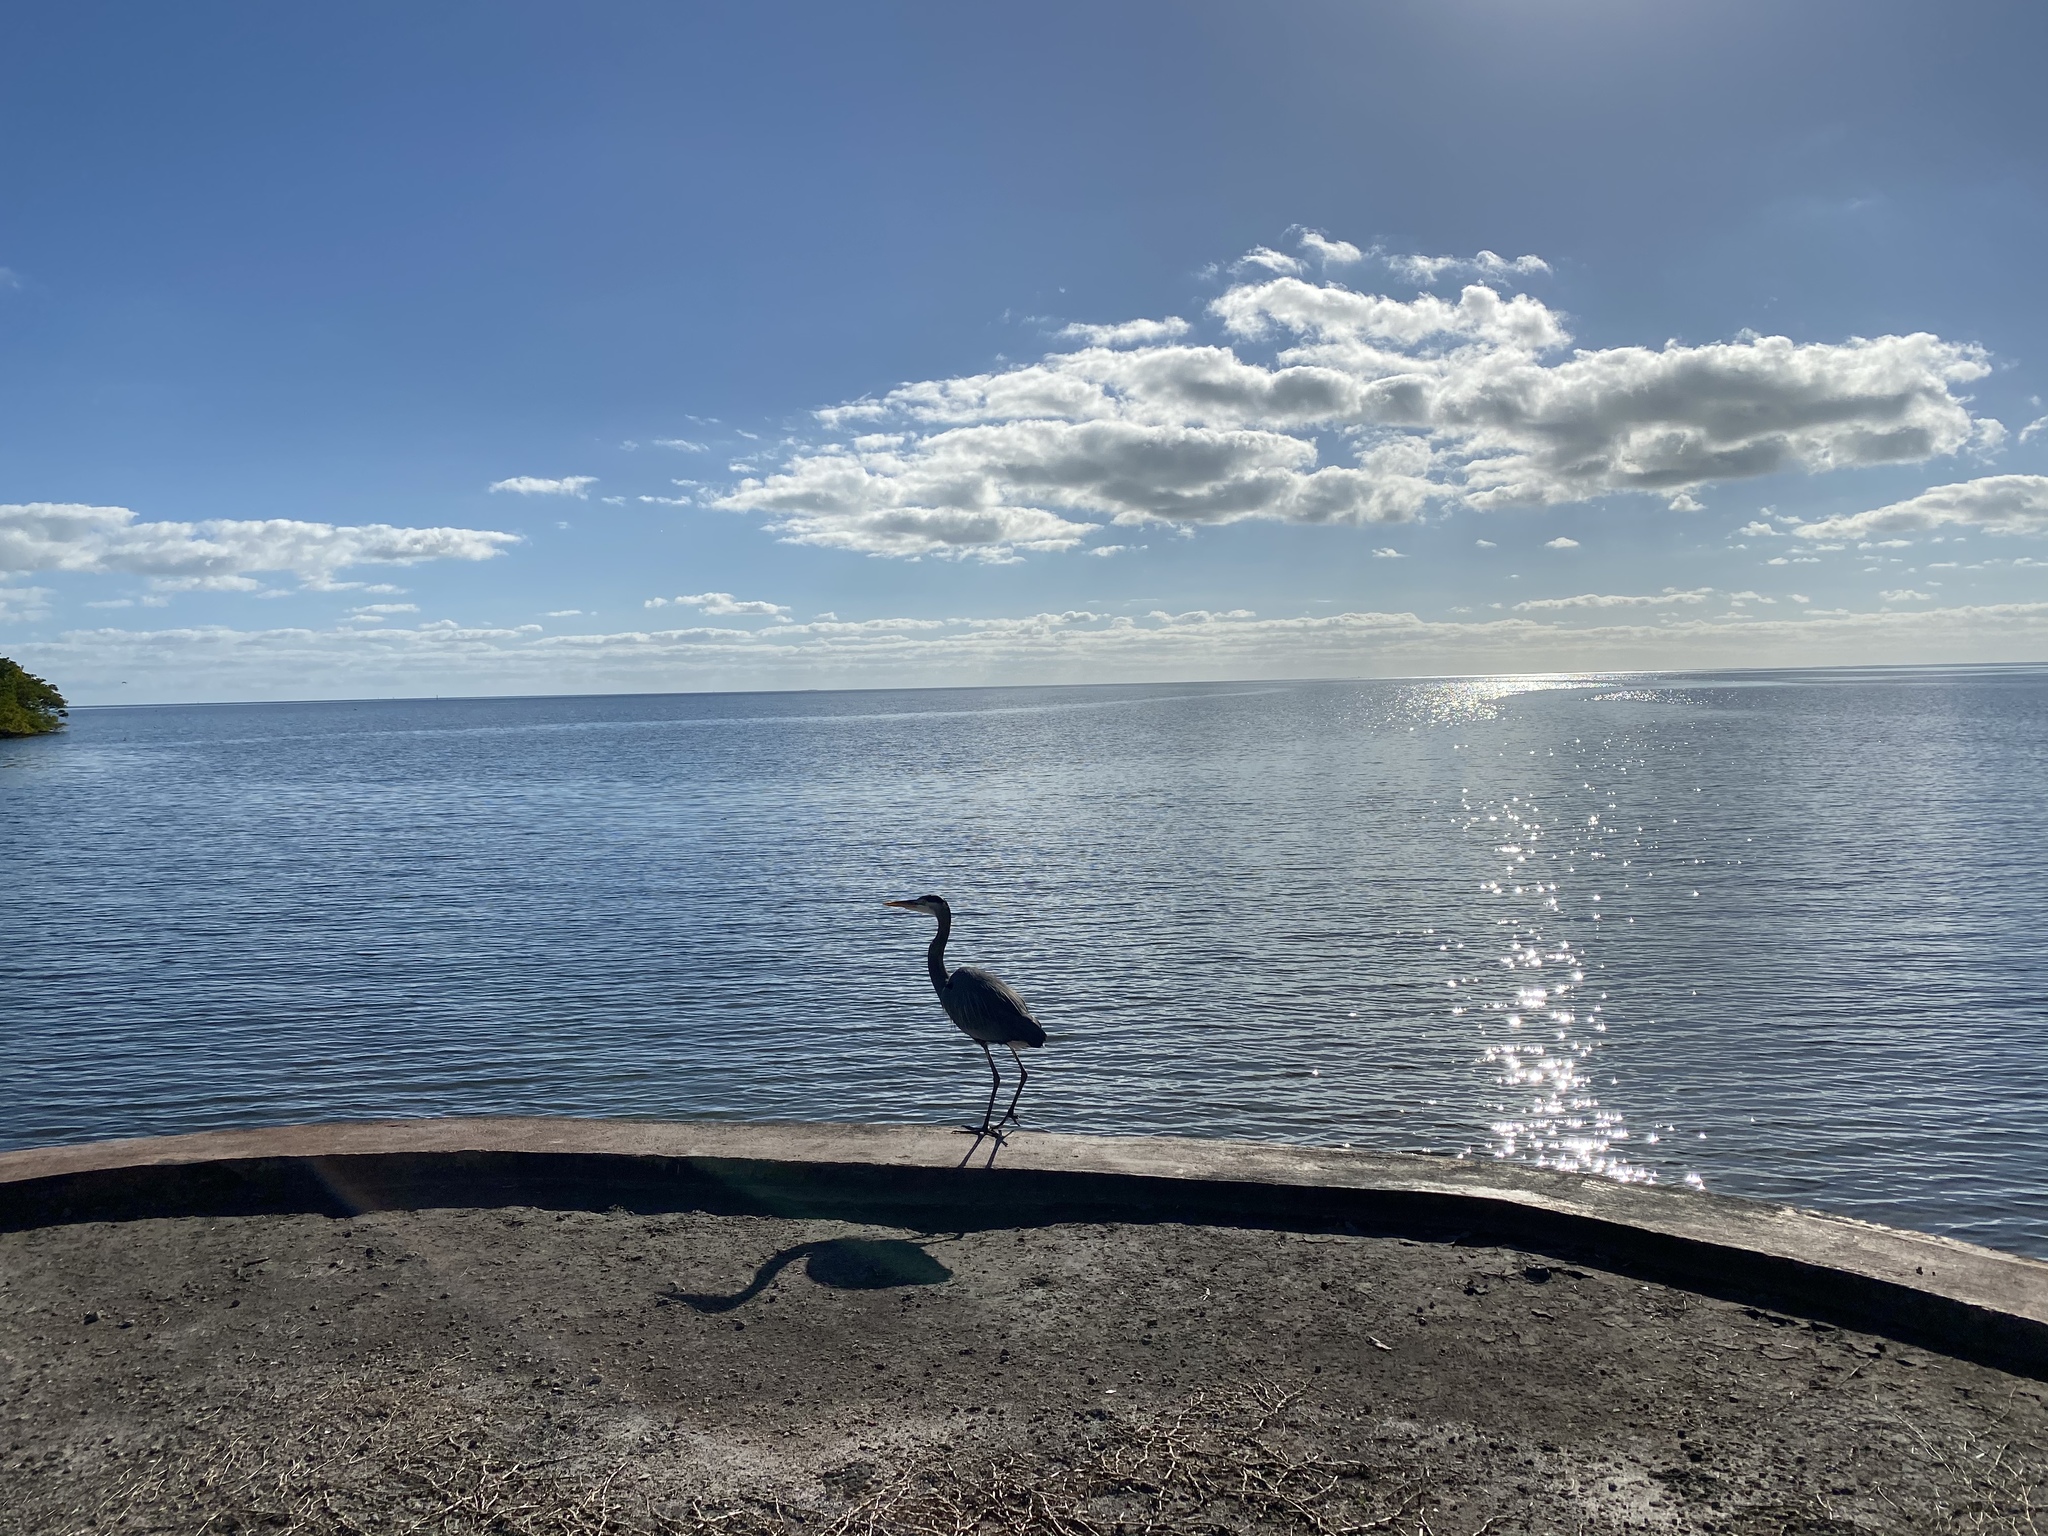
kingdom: Animalia
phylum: Chordata
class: Aves
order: Pelecaniformes
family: Ardeidae
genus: Ardea
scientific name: Ardea herodias
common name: Great blue heron
